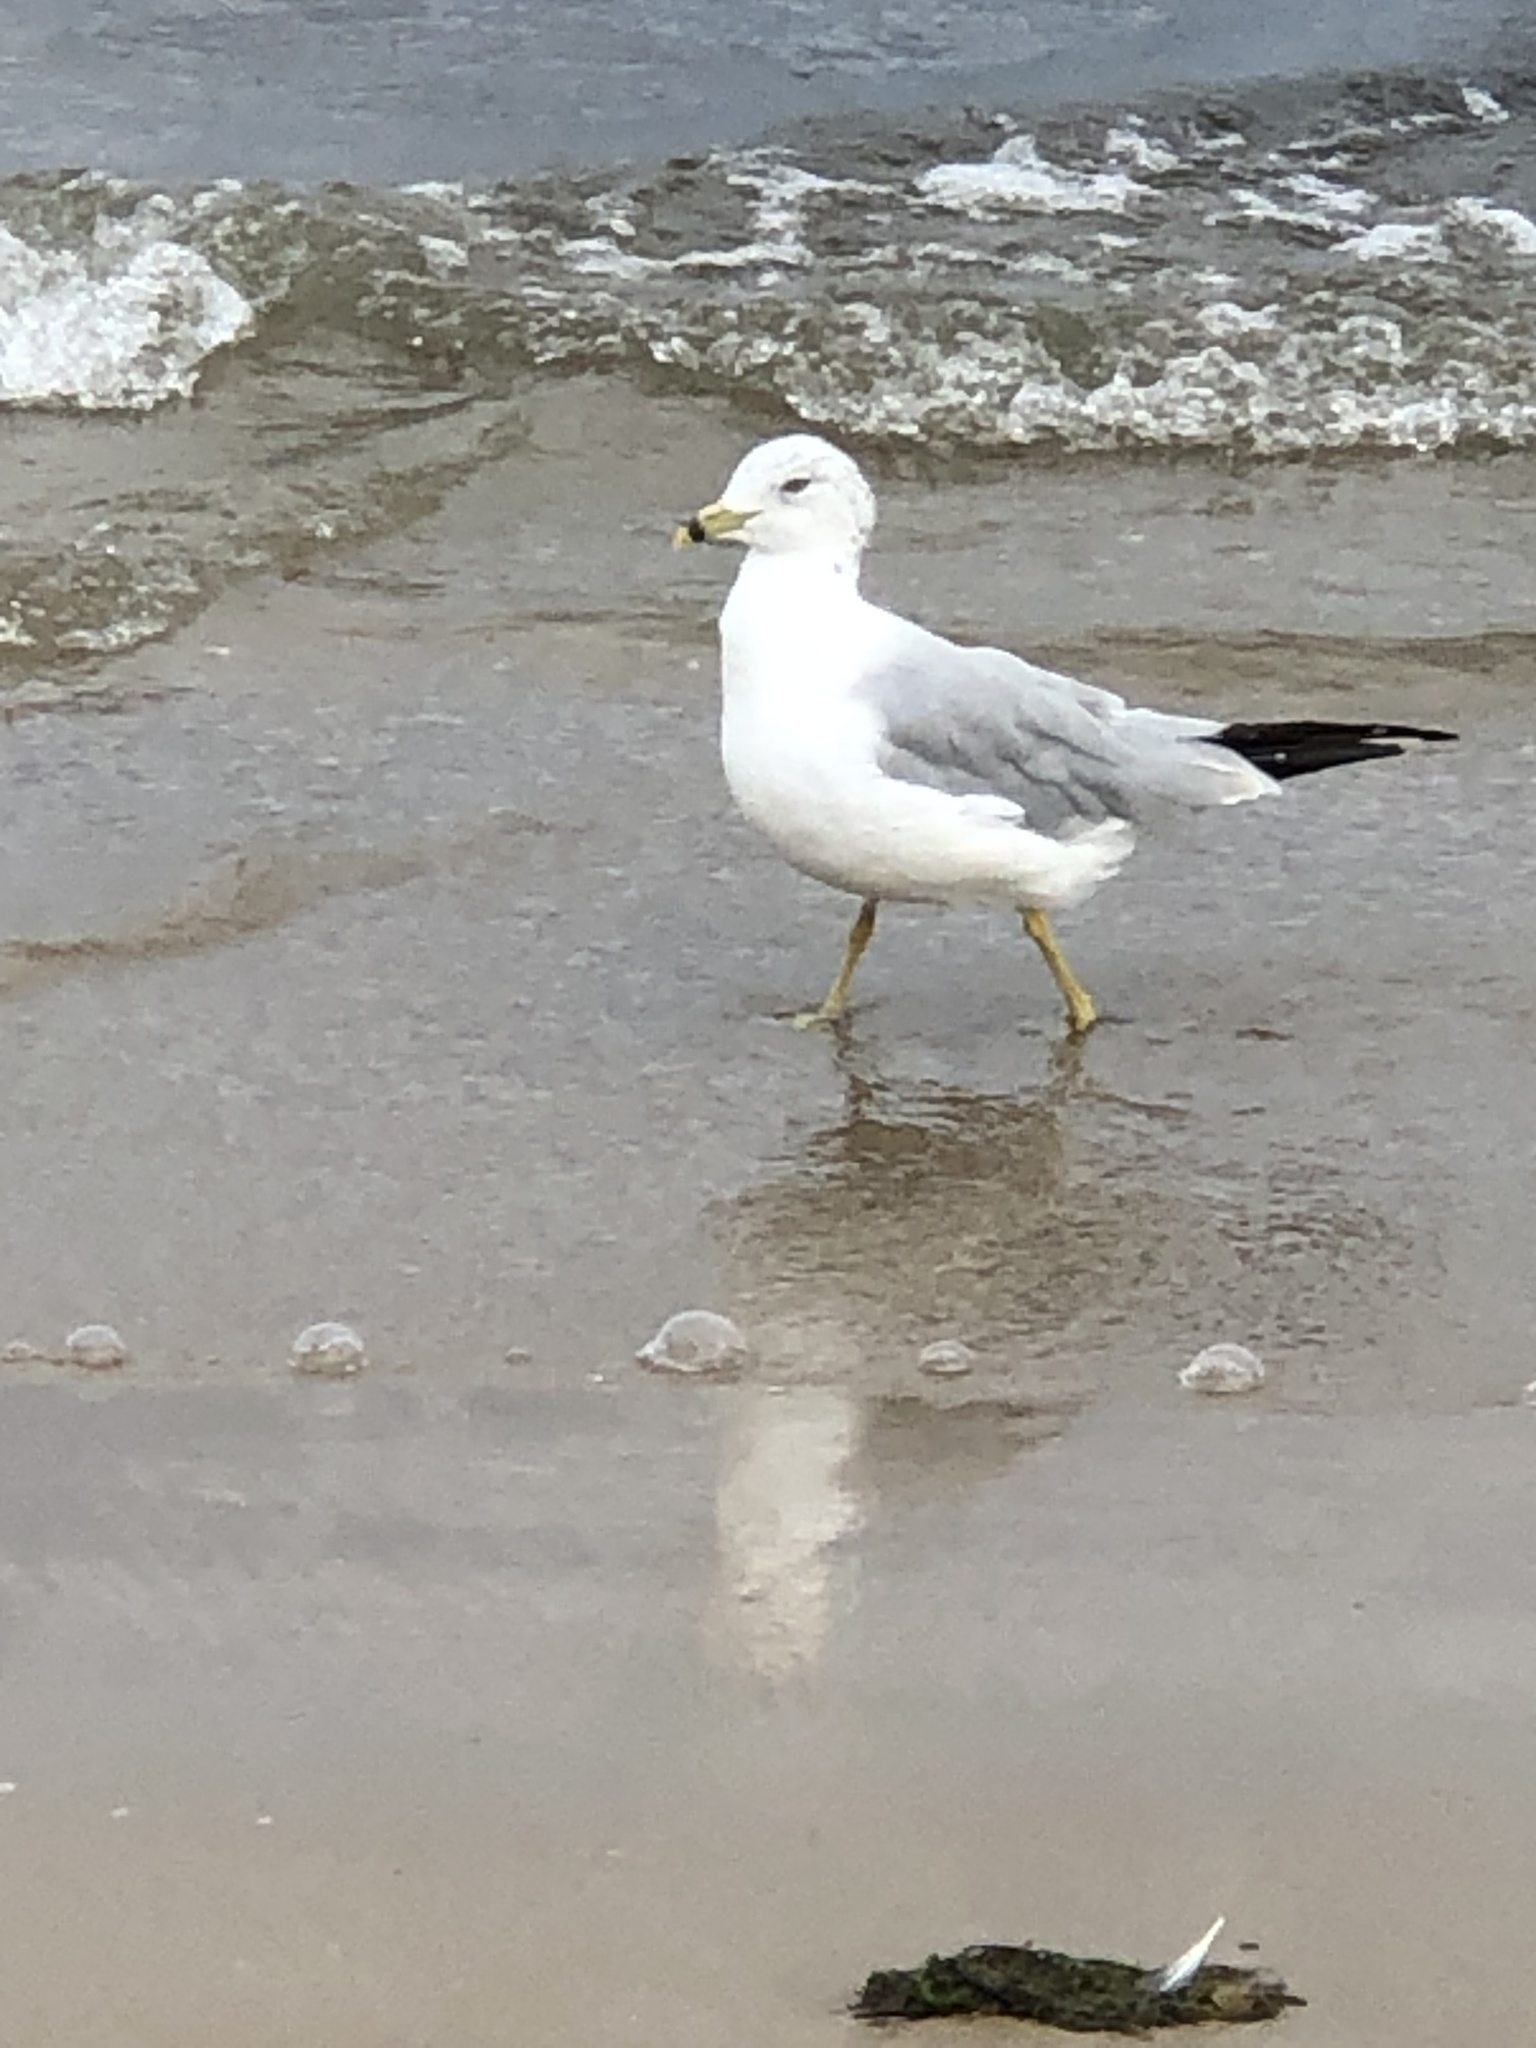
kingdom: Animalia
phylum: Chordata
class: Aves
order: Charadriiformes
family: Laridae
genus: Larus
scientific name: Larus delawarensis
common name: Ring-billed gull
